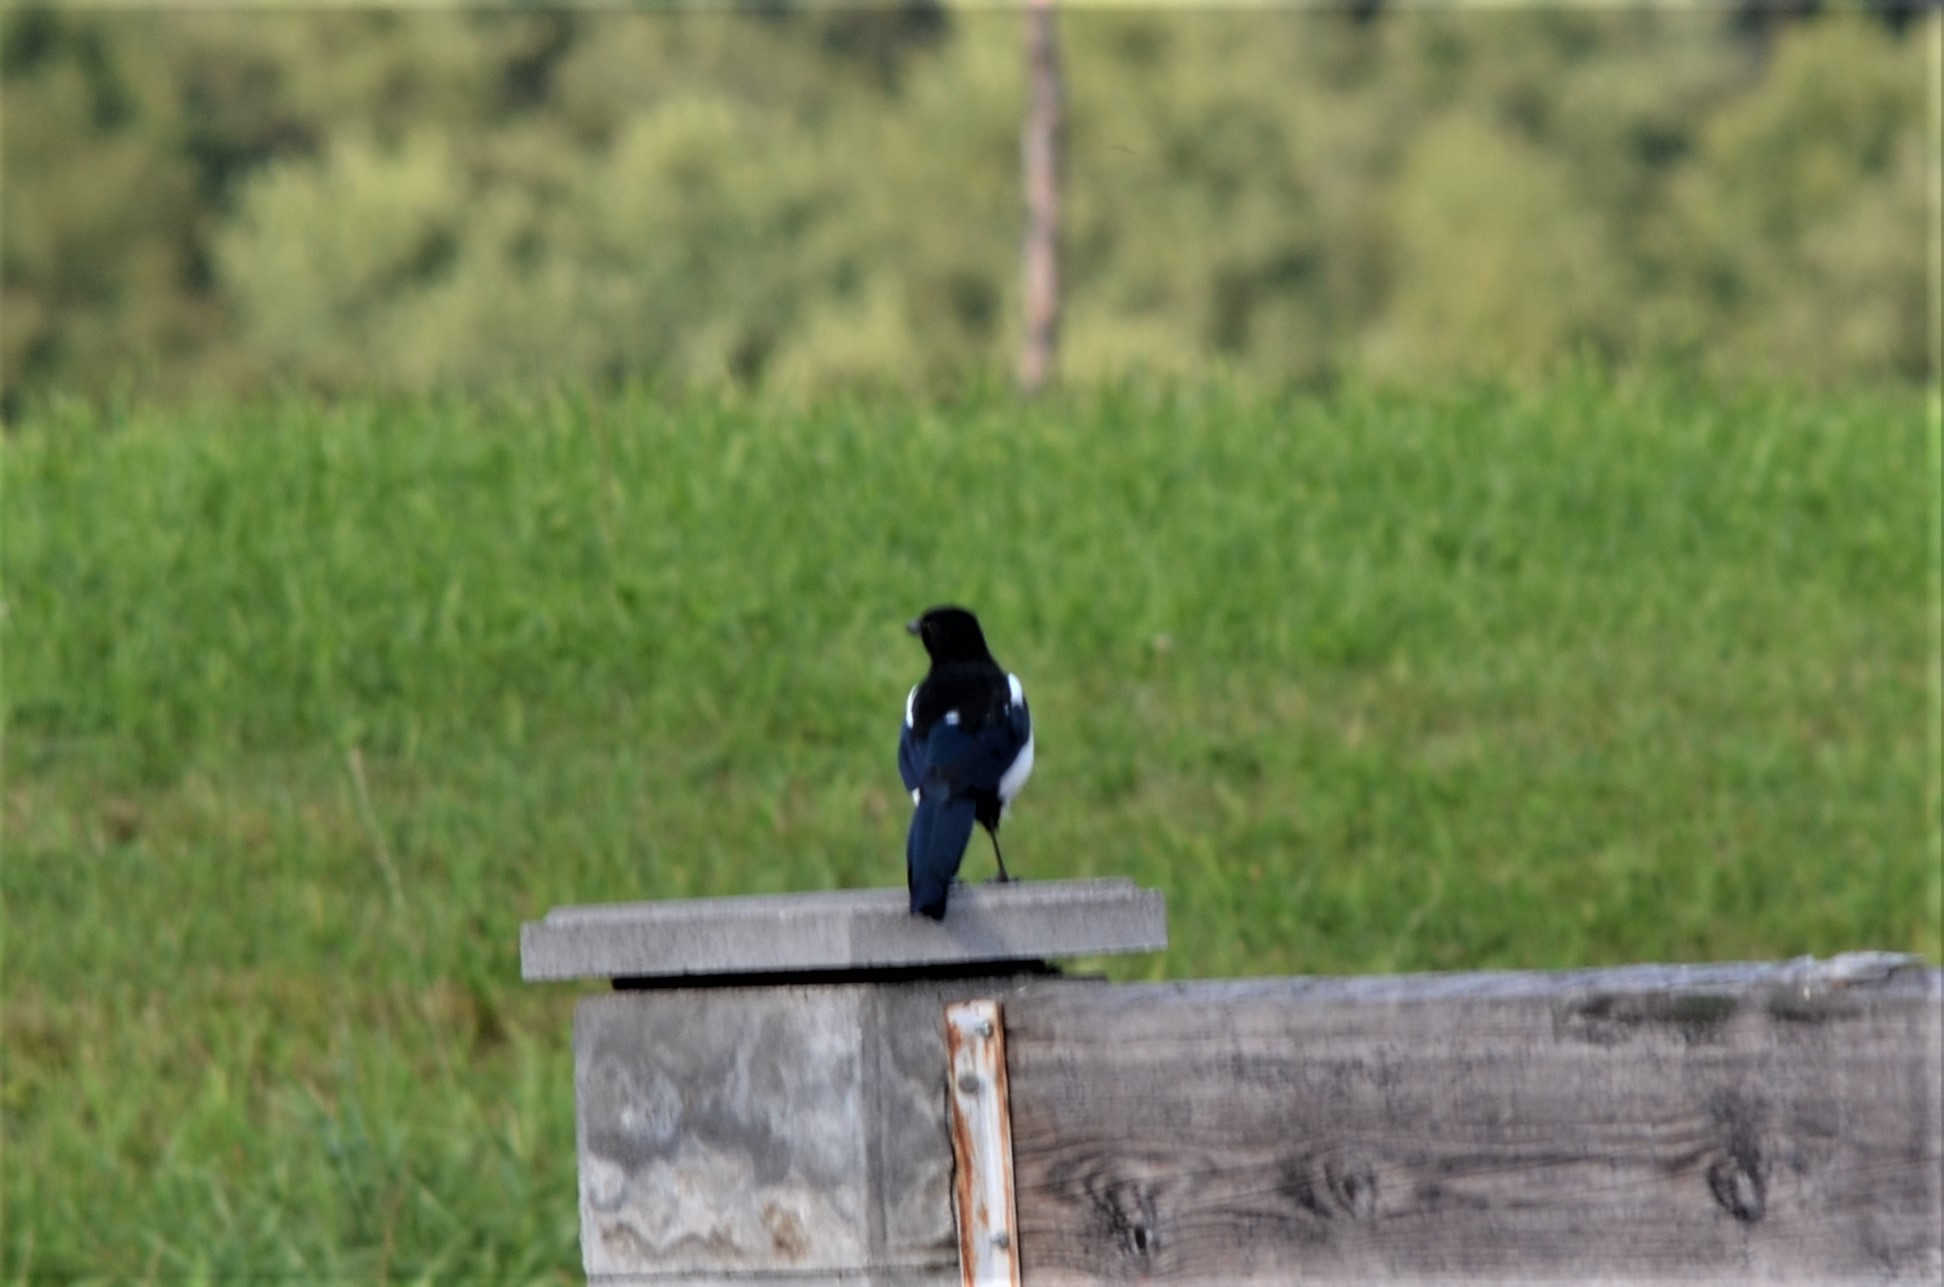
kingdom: Animalia
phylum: Chordata
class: Aves
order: Passeriformes
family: Corvidae
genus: Pica
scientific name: Pica pica
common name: Eurasian magpie
